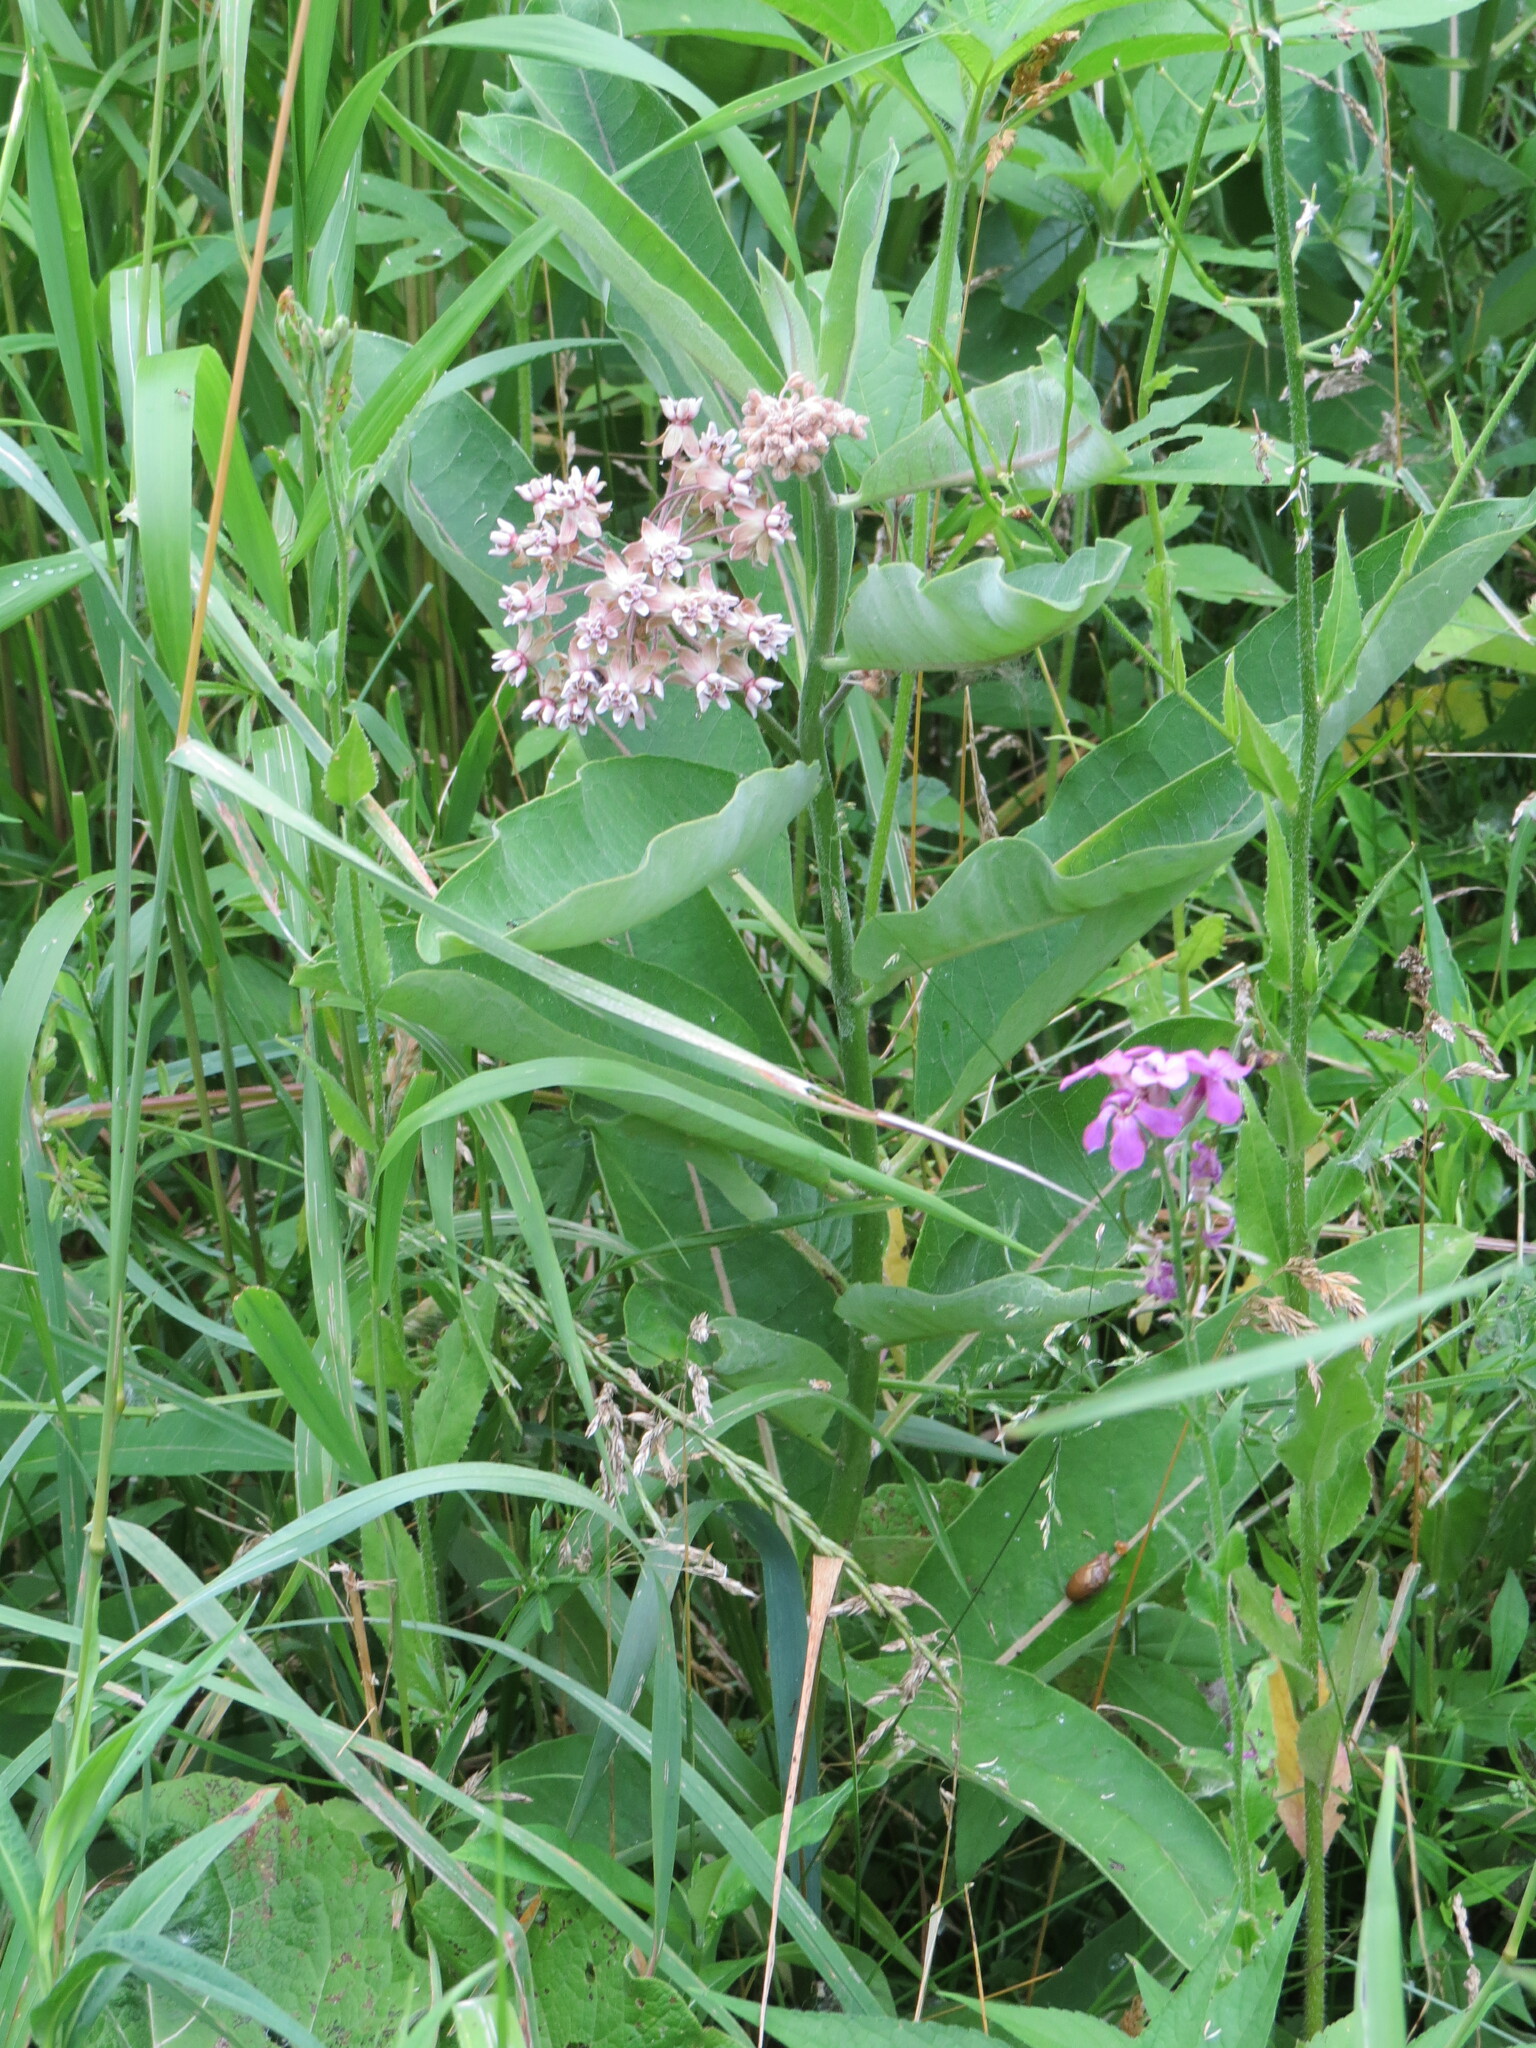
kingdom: Plantae
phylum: Tracheophyta
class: Magnoliopsida
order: Gentianales
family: Apocynaceae
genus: Asclepias
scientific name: Asclepias syriaca
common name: Common milkweed
